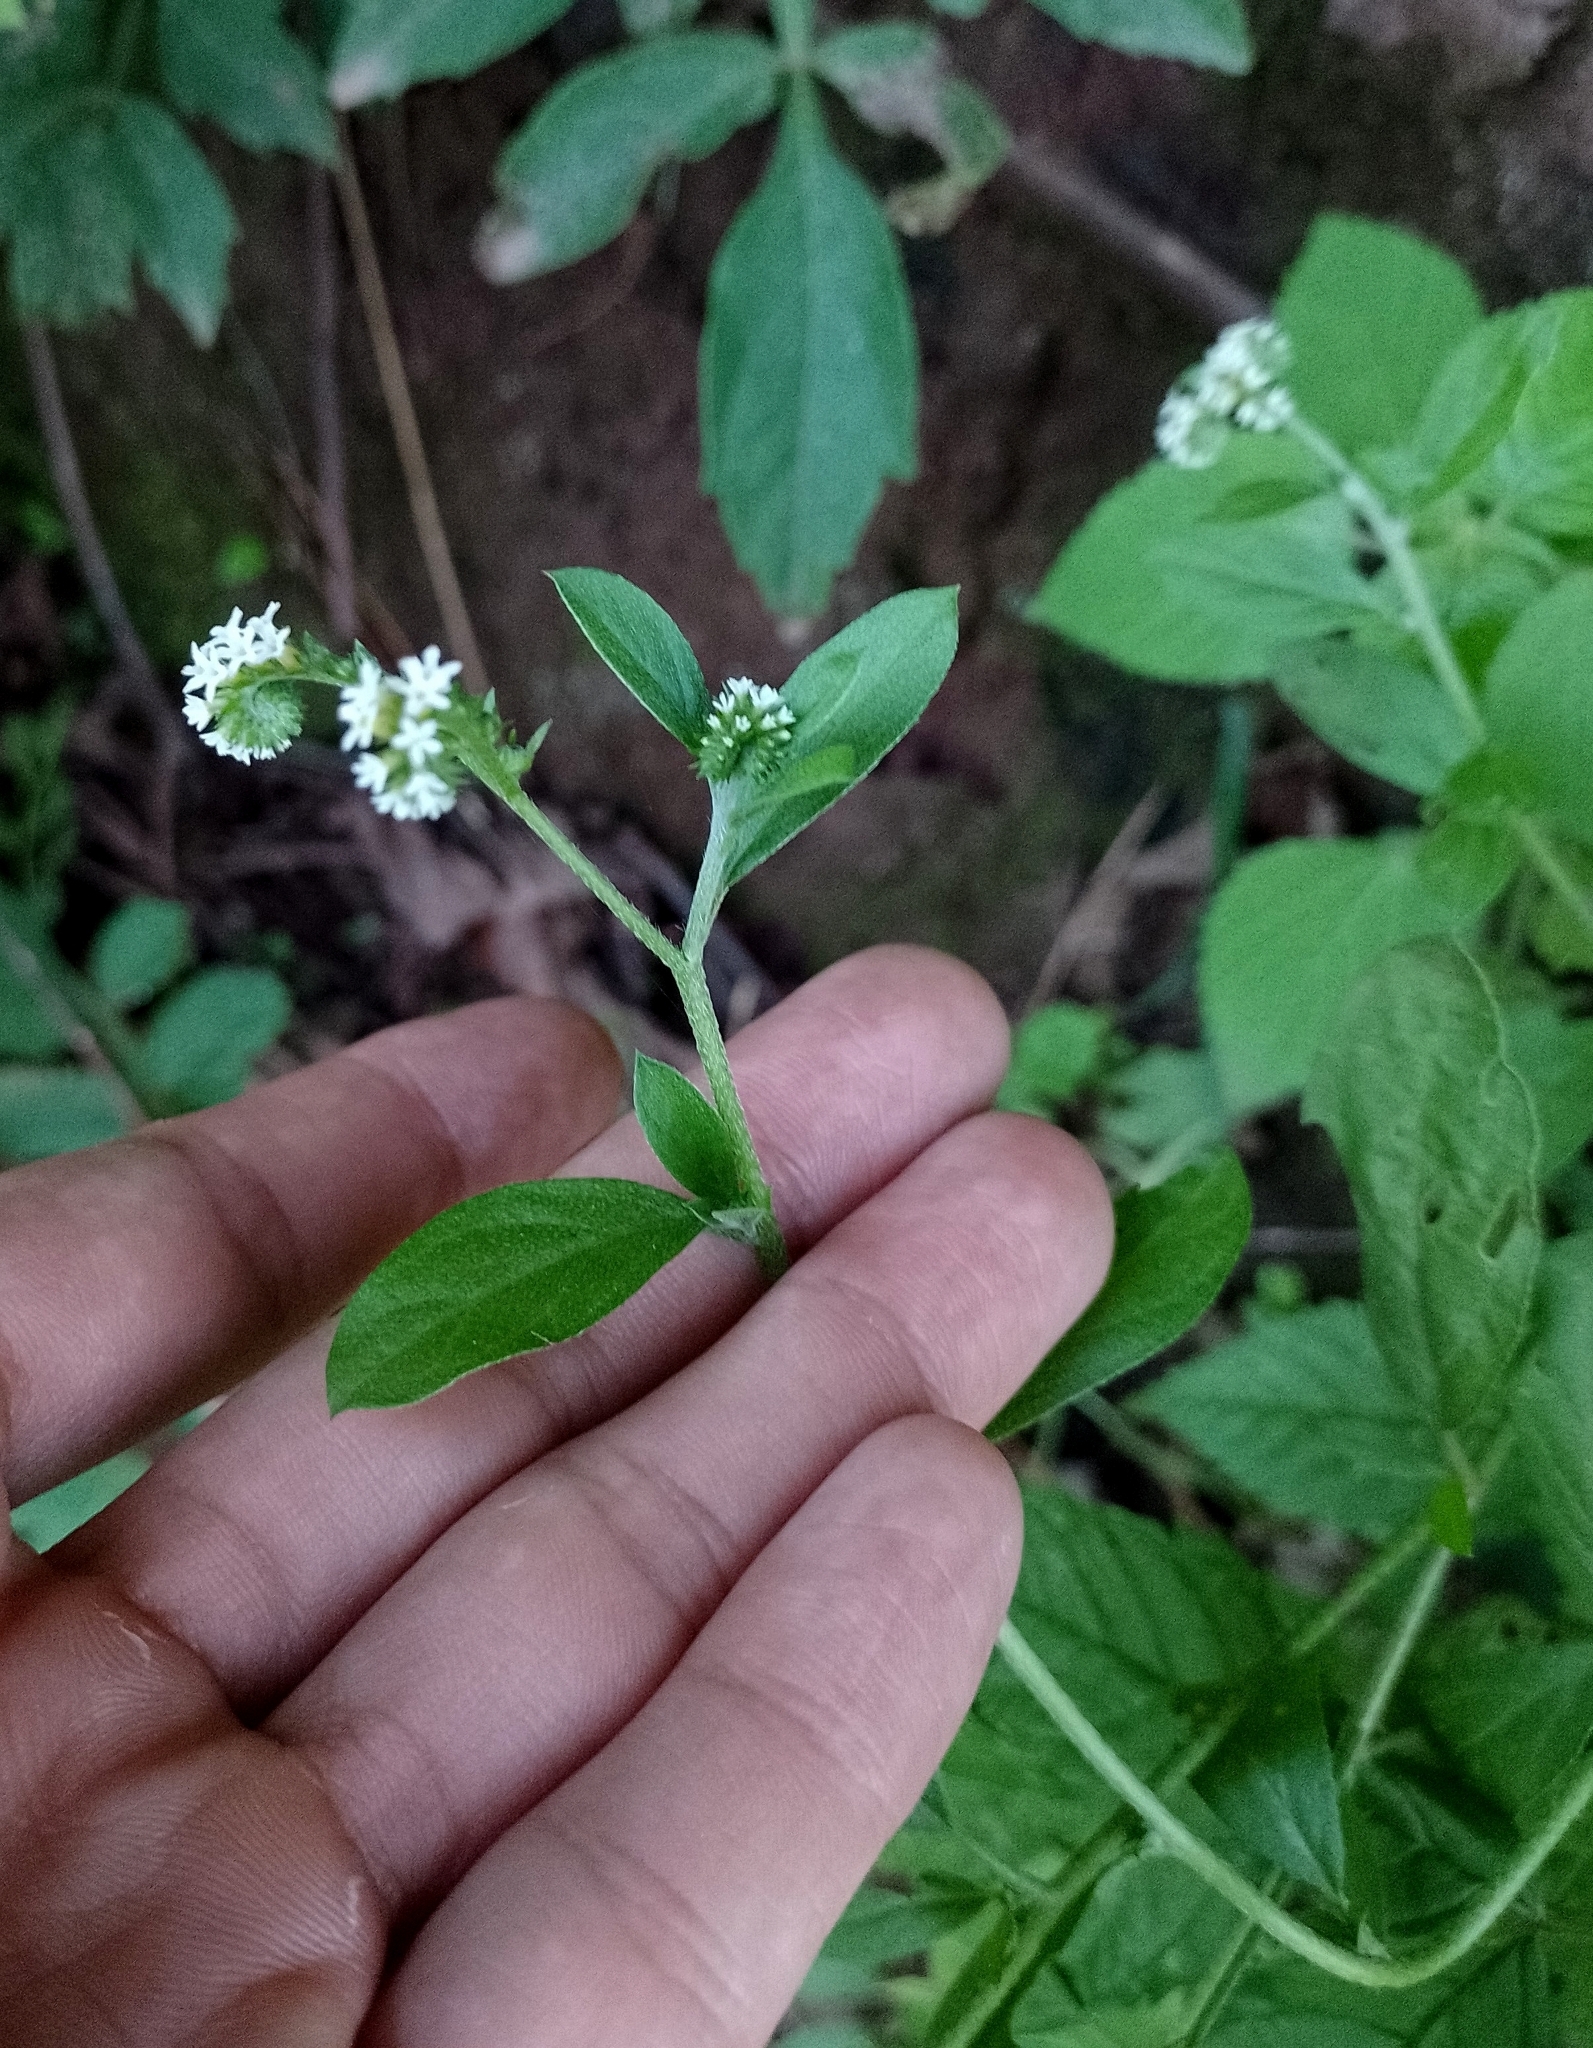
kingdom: Plantae
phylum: Tracheophyta
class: Magnoliopsida
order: Boraginales
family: Heliotropiaceae
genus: Euploca
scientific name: Euploca procumbens
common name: Fourspike heliotrope
